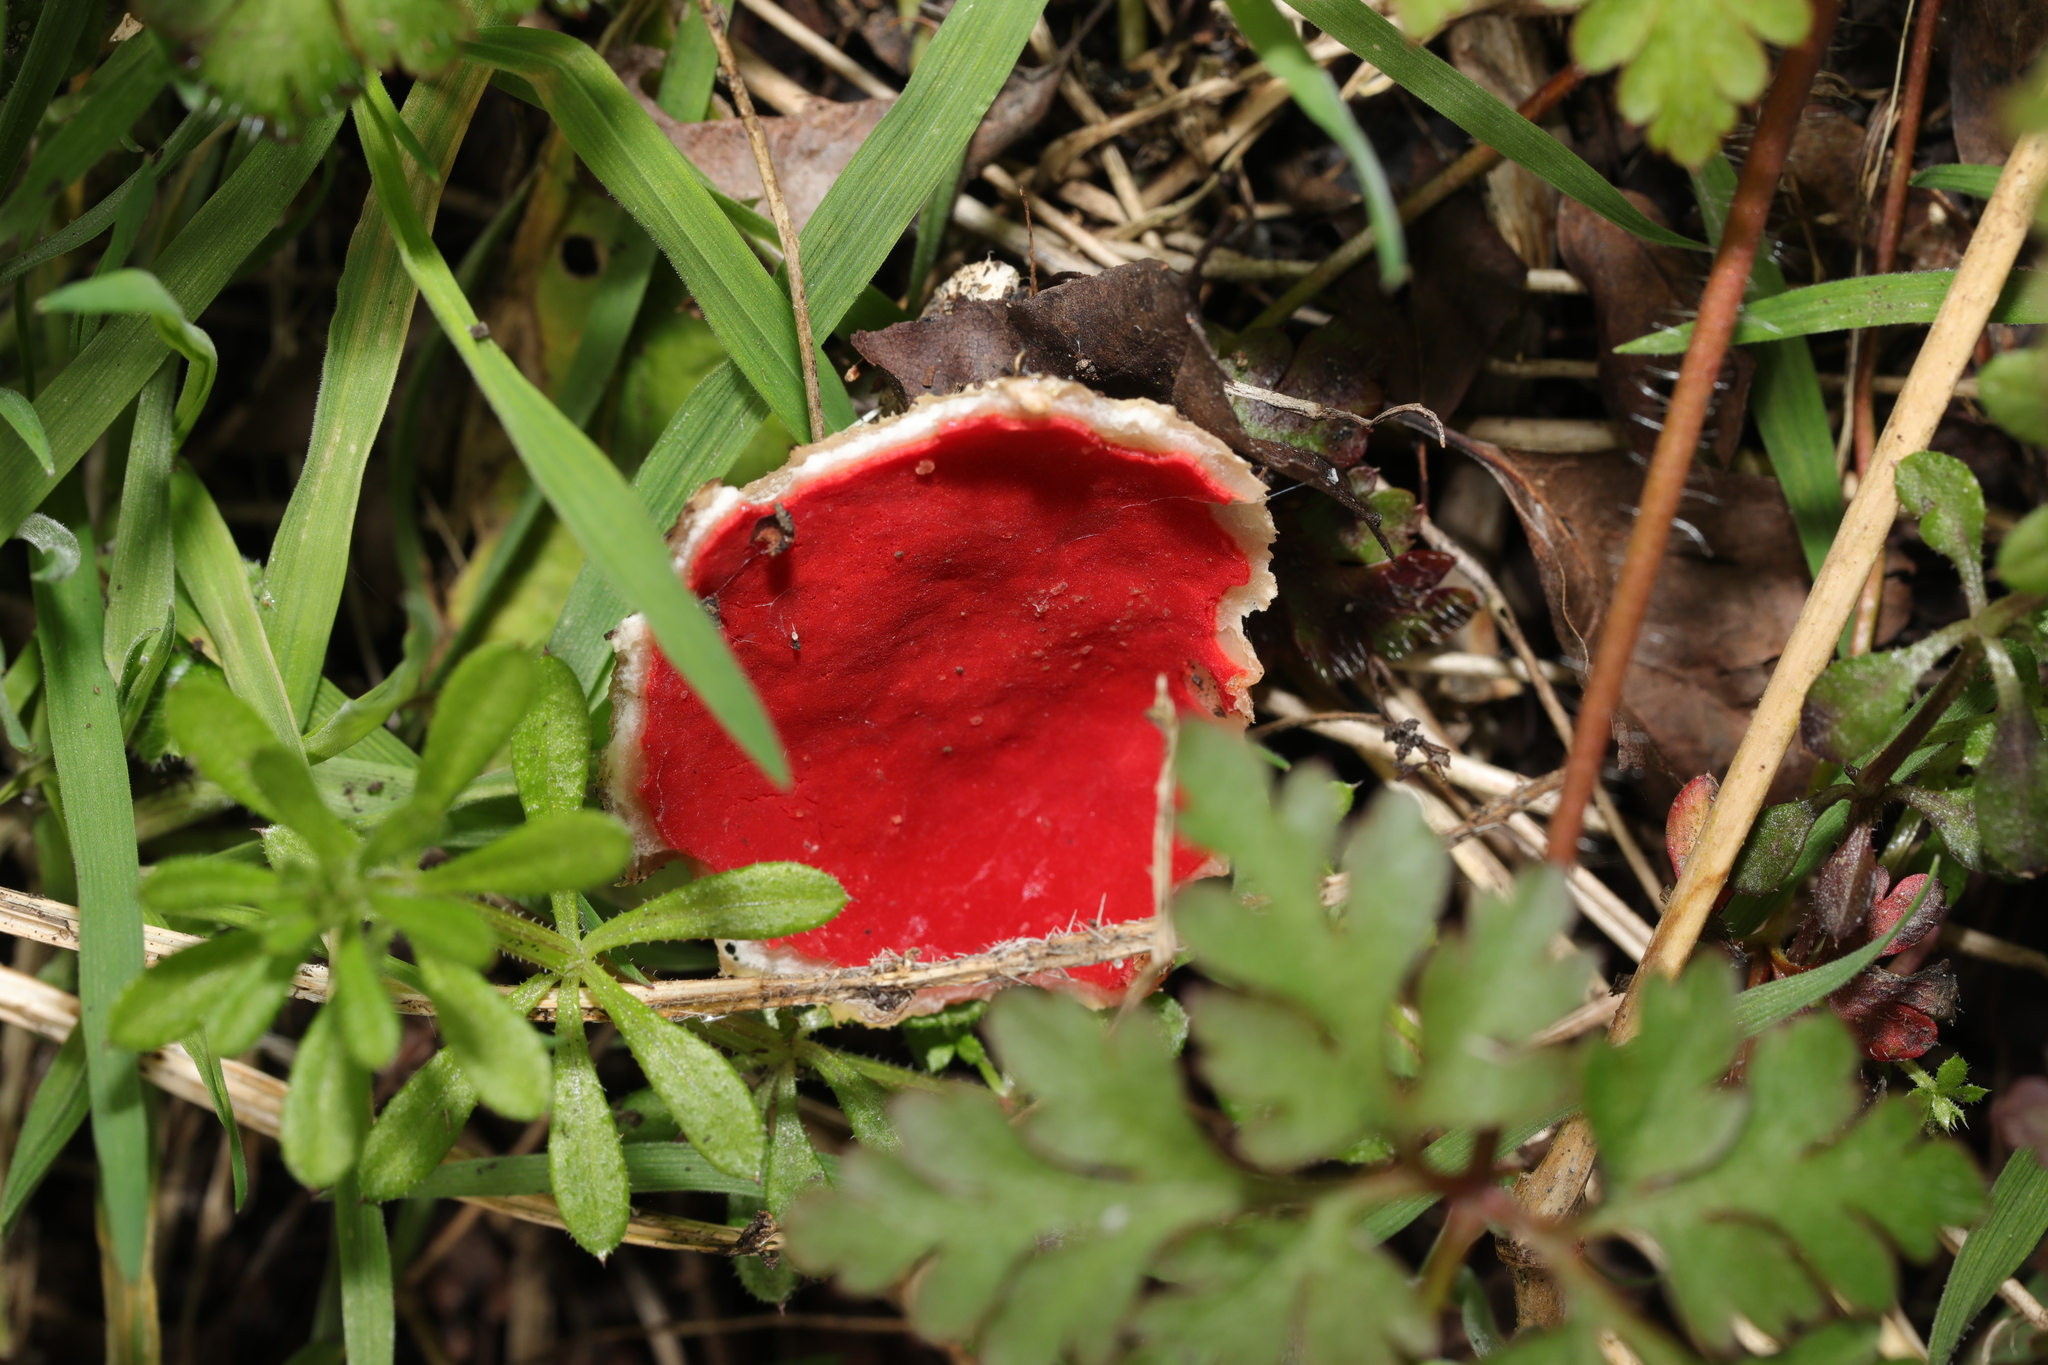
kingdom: Fungi
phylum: Ascomycota
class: Pezizomycetes
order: Pezizales
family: Sarcoscyphaceae
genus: Sarcoscypha
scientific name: Sarcoscypha
